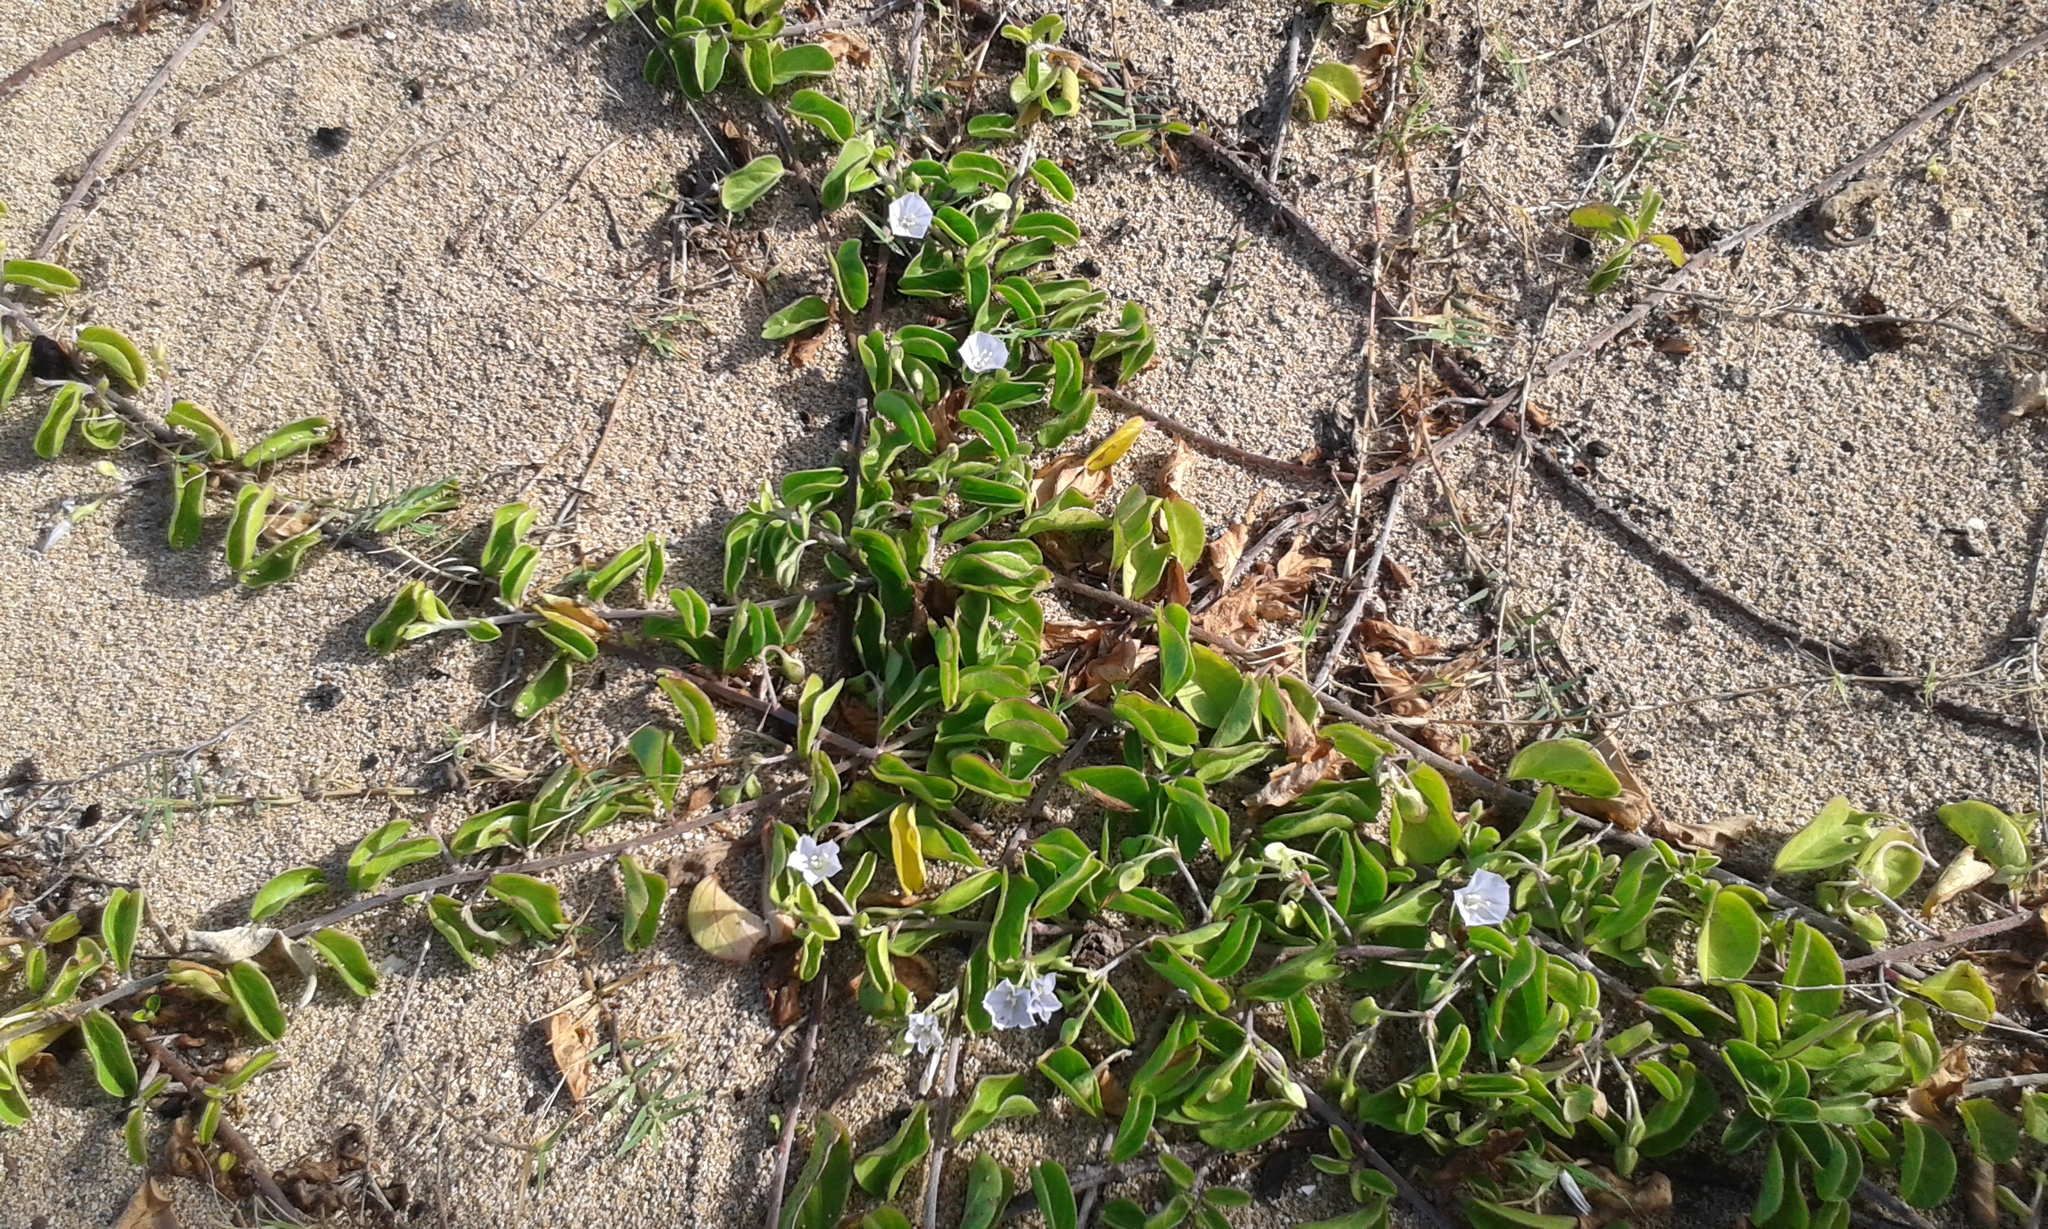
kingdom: Plantae
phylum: Tracheophyta
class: Magnoliopsida
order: Solanales
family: Convolvulaceae
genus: Jacquemontia
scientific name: Jacquemontia sandwicensis
